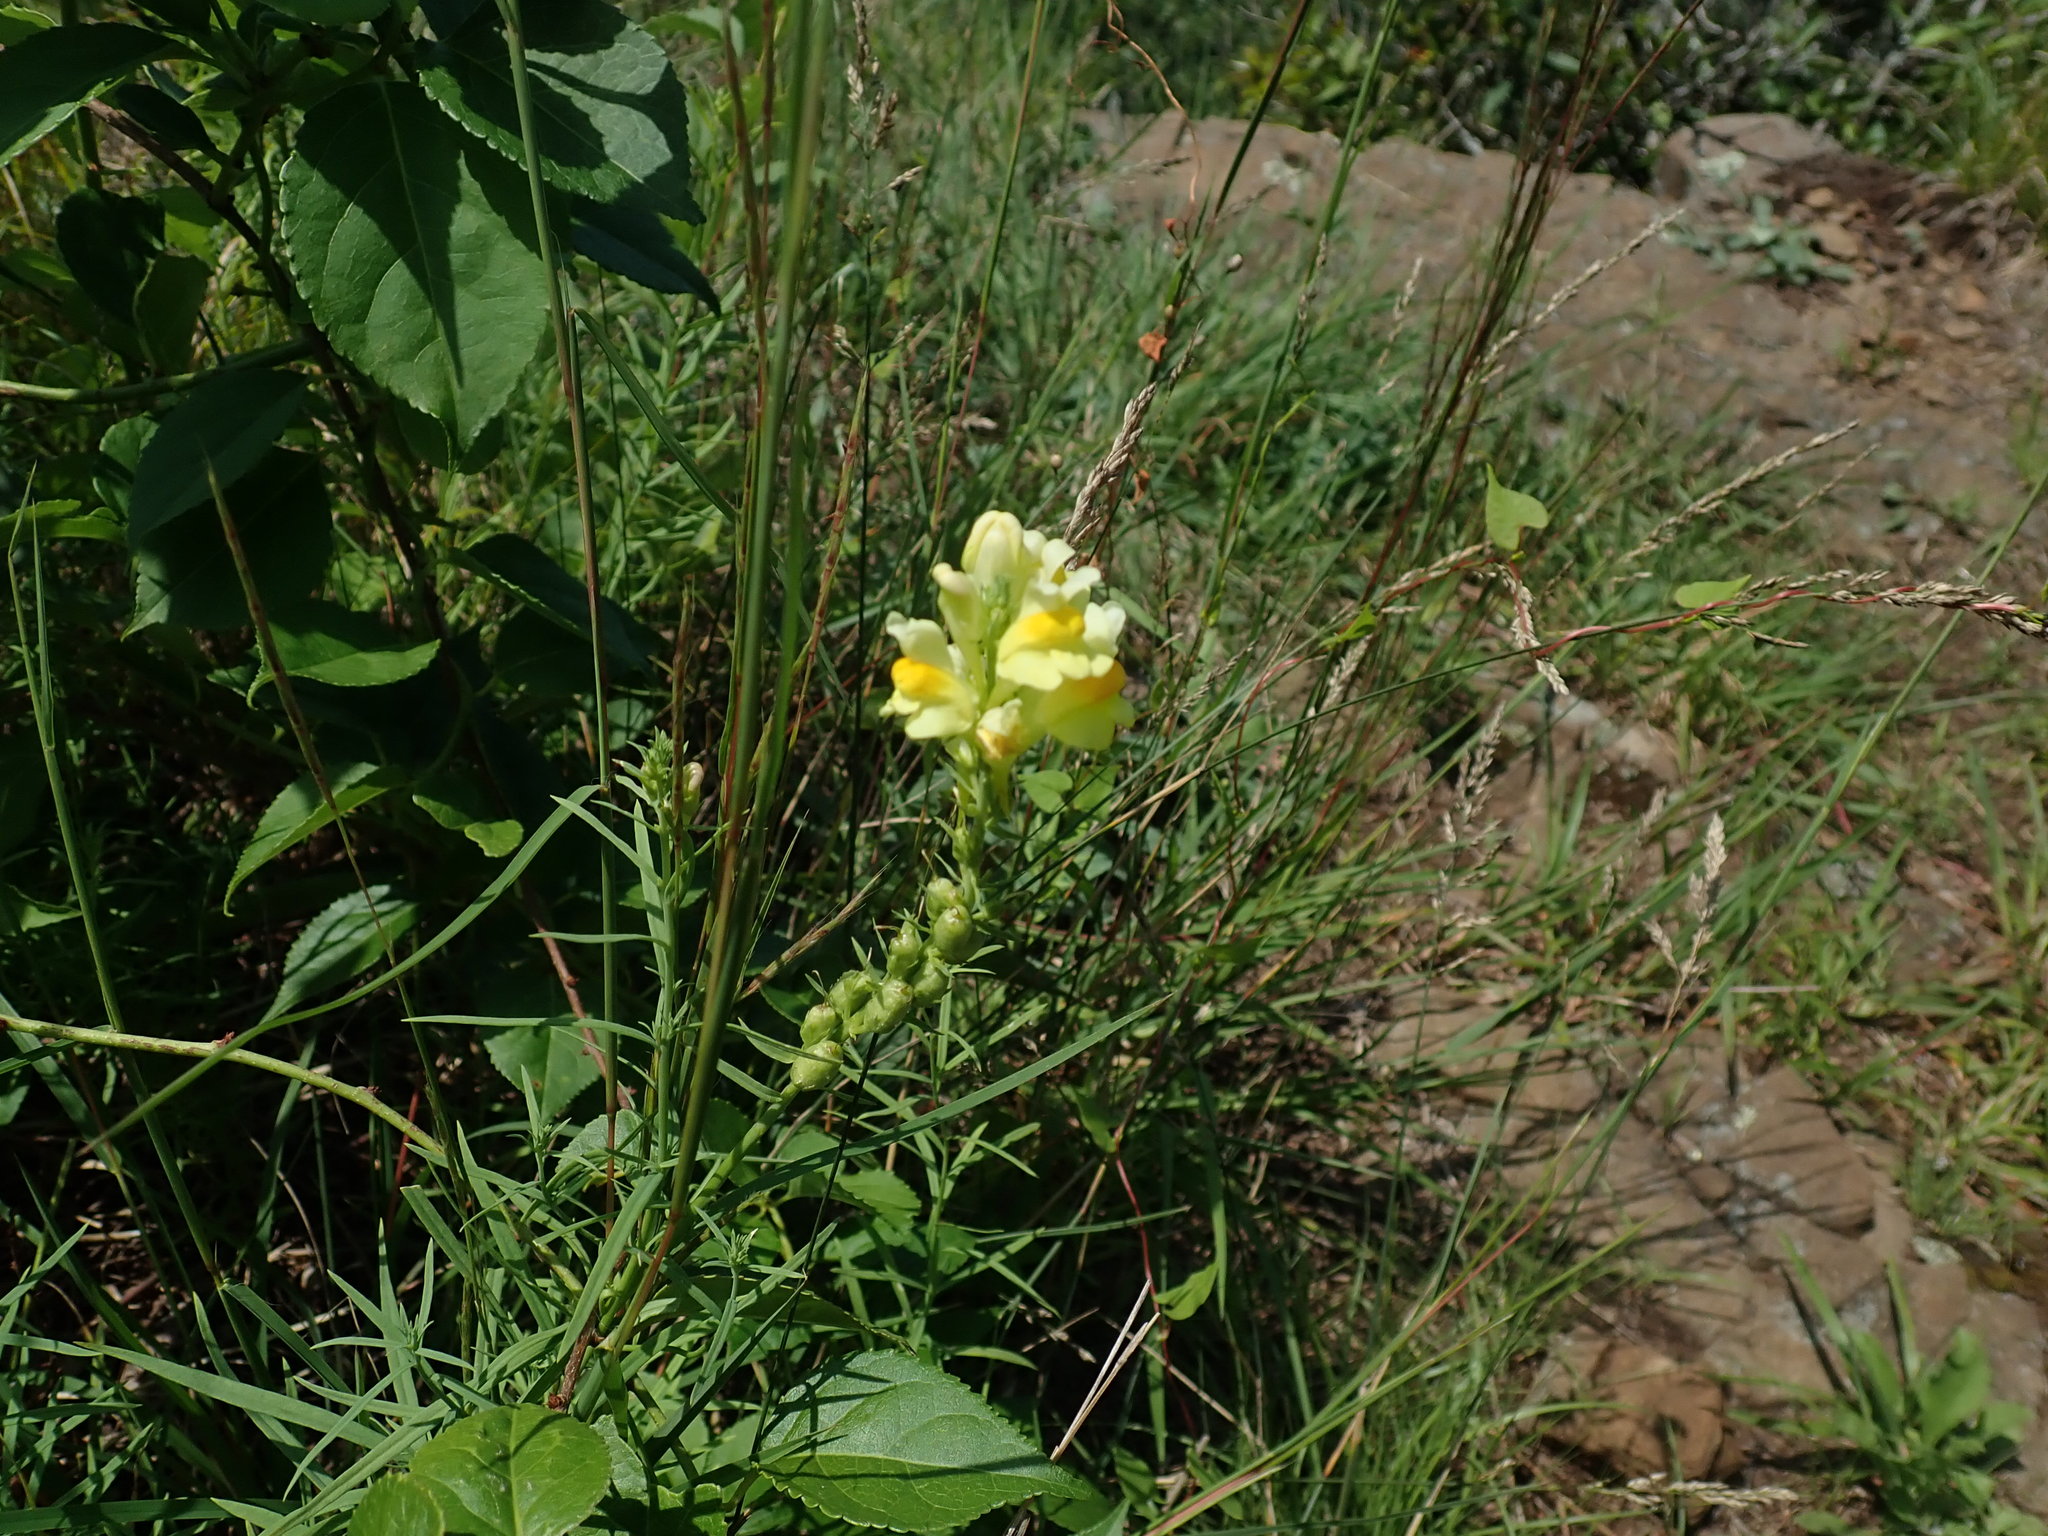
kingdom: Plantae
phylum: Tracheophyta
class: Magnoliopsida
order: Lamiales
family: Plantaginaceae
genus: Linaria
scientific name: Linaria vulgaris
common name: Butter and eggs
